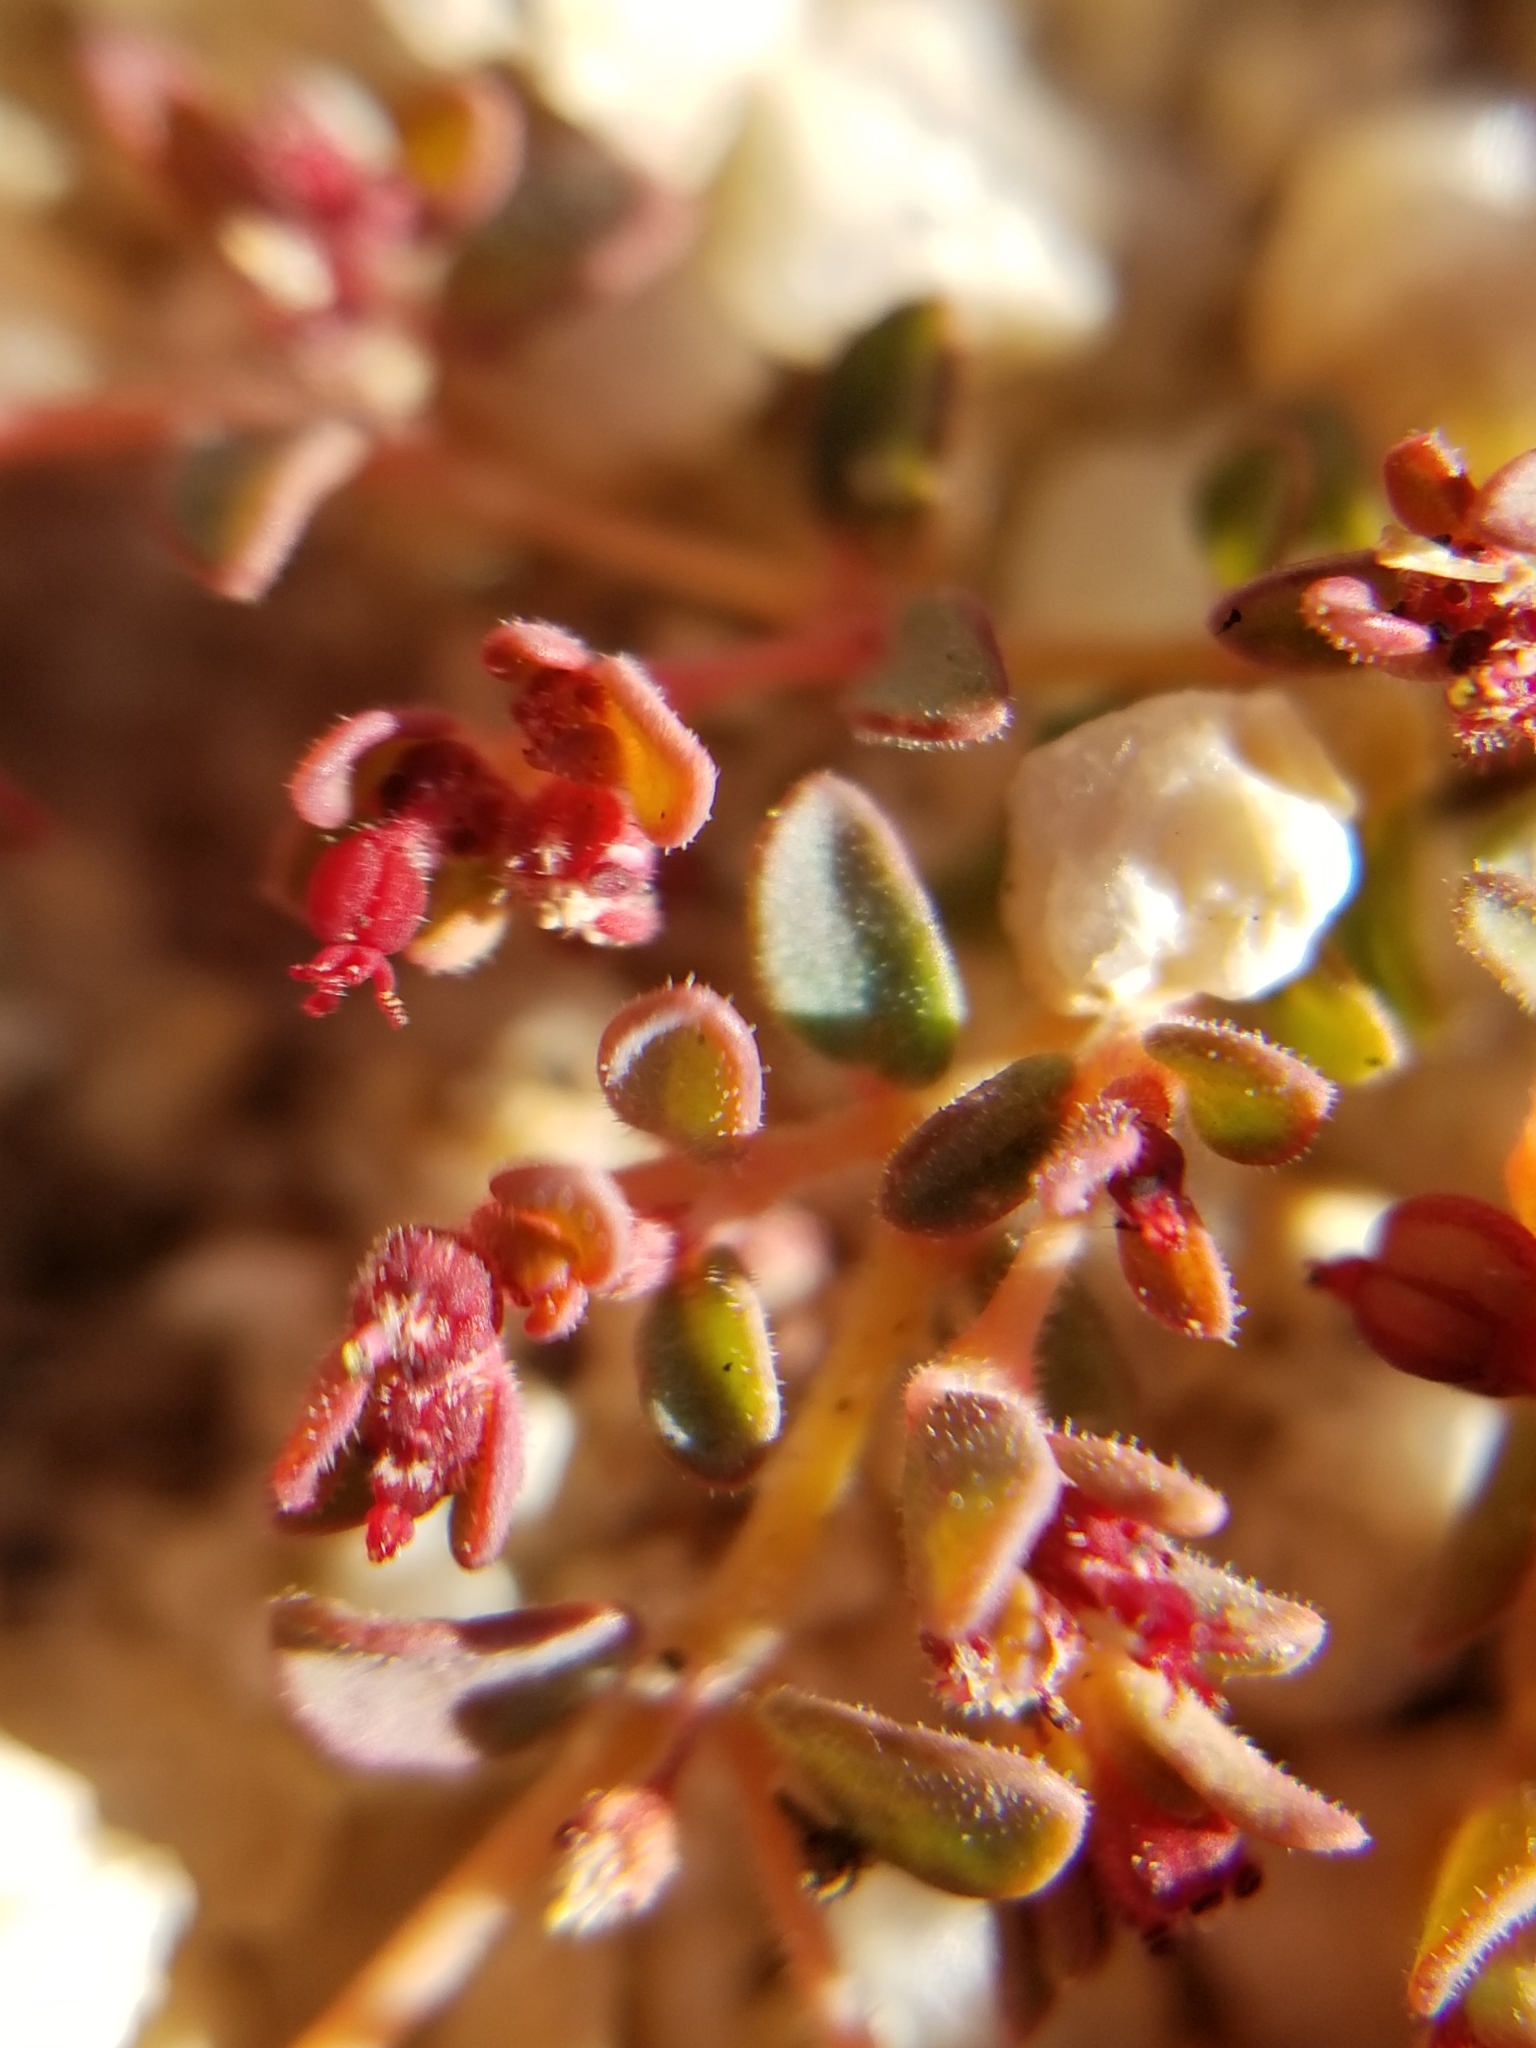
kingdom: Plantae
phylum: Tracheophyta
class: Magnoliopsida
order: Malpighiales
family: Euphorbiaceae
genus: Euphorbia
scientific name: Euphorbia polycarpa
